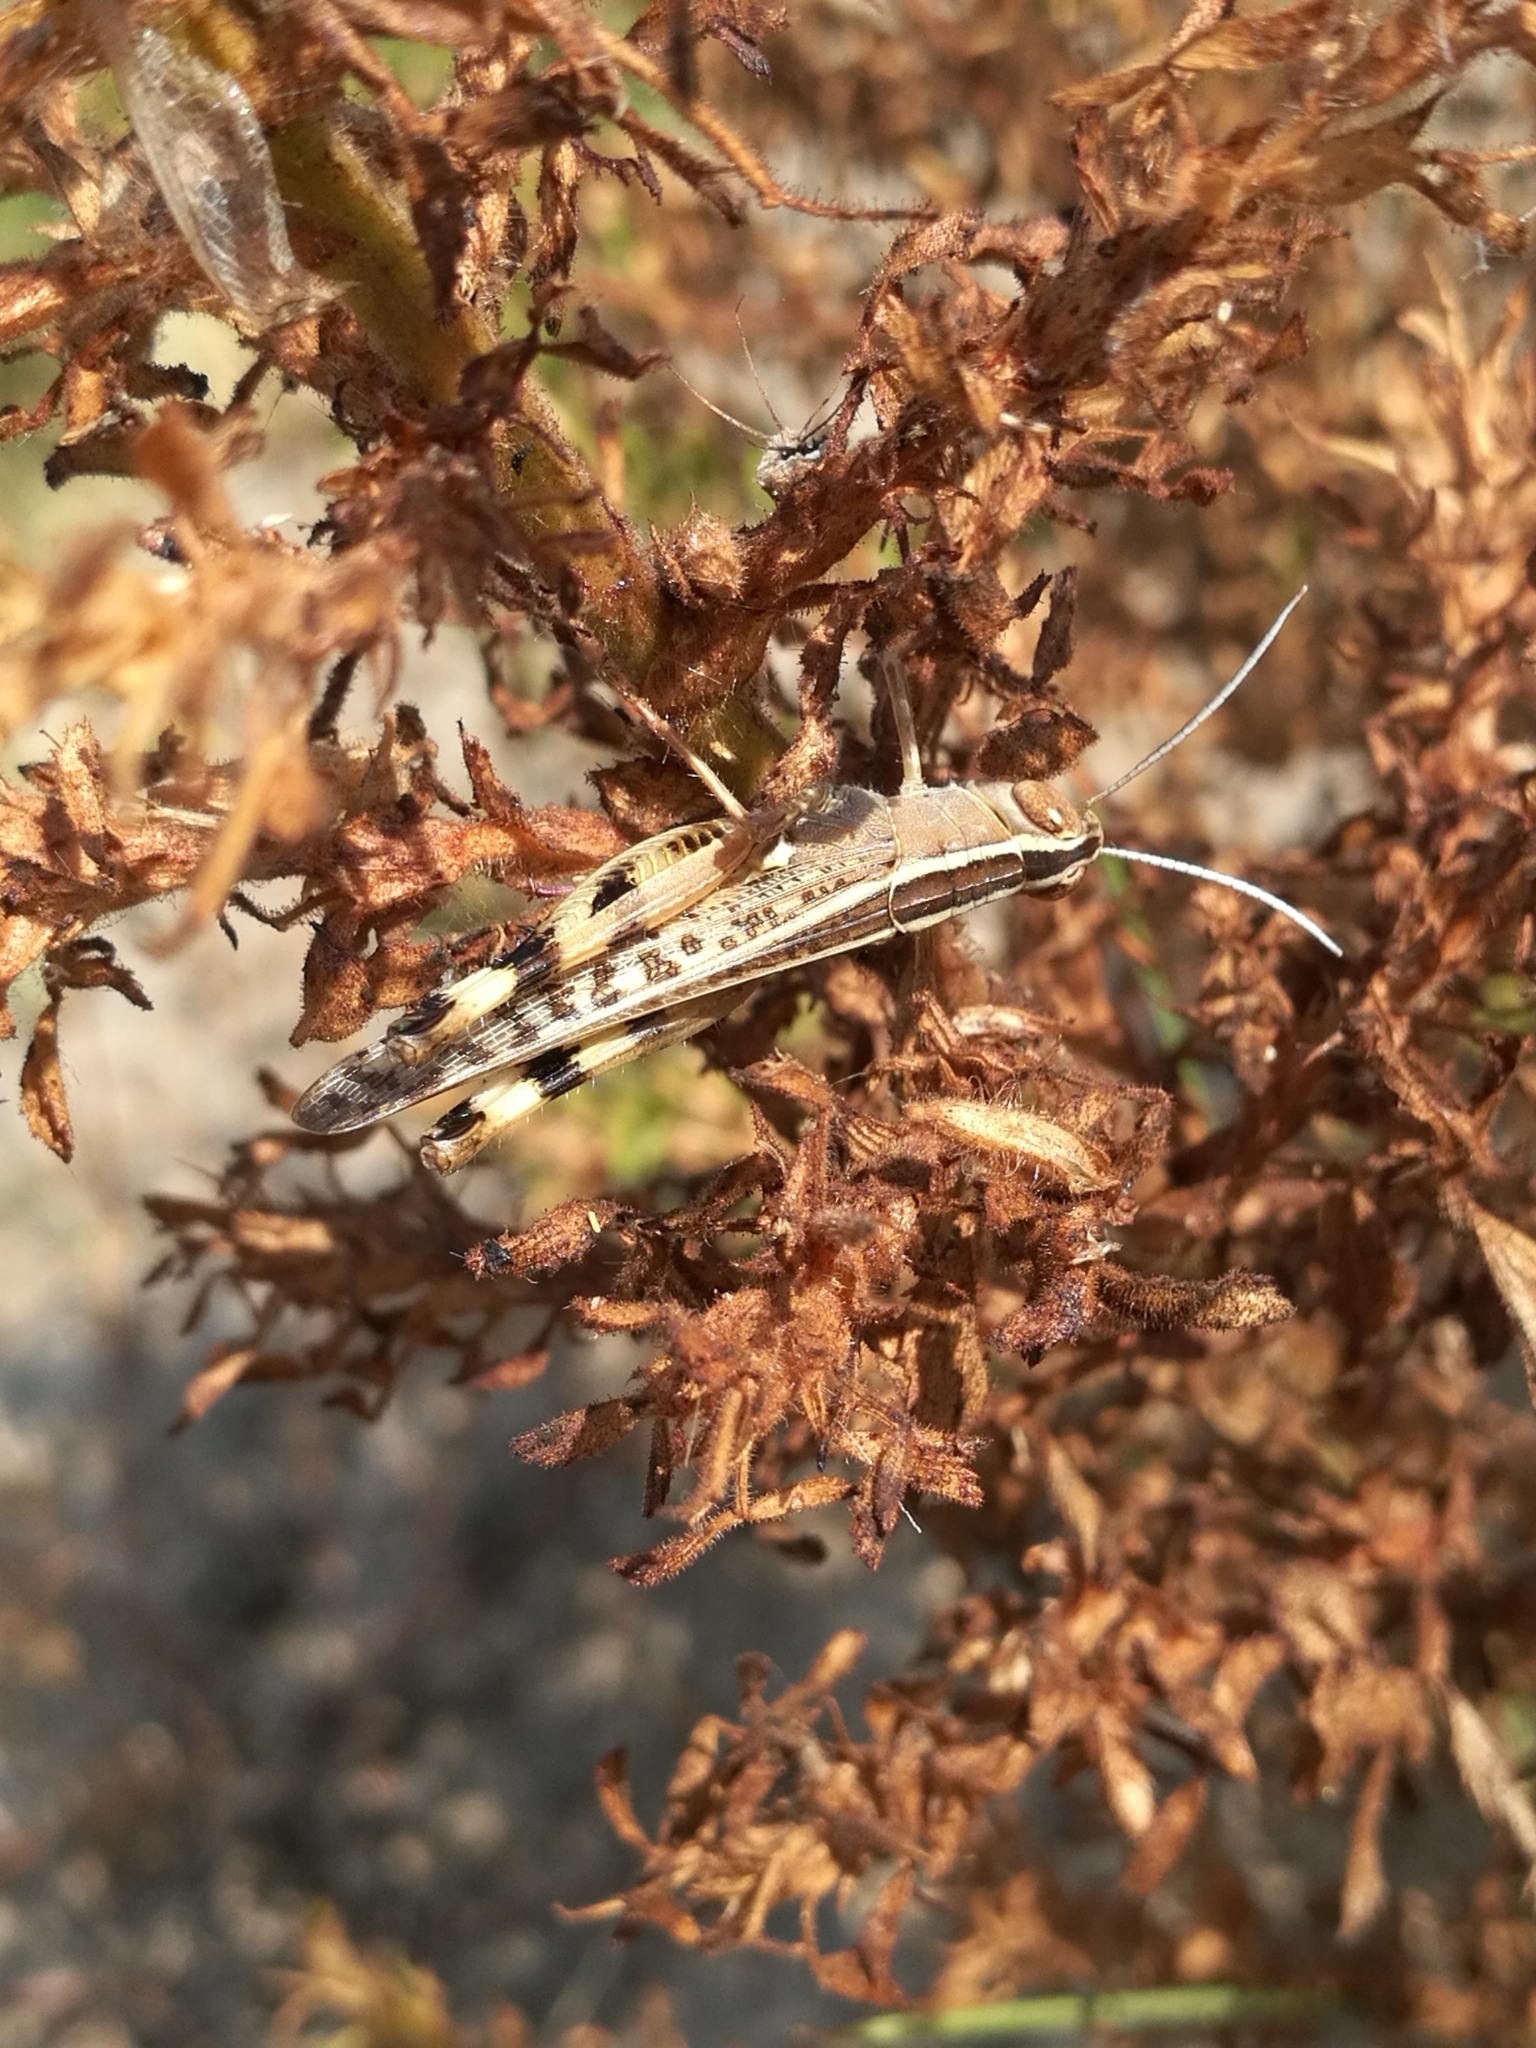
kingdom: Animalia
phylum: Arthropoda
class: Insecta
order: Orthoptera
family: Acrididae
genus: Heteracris
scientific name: Heteracris littoralis
